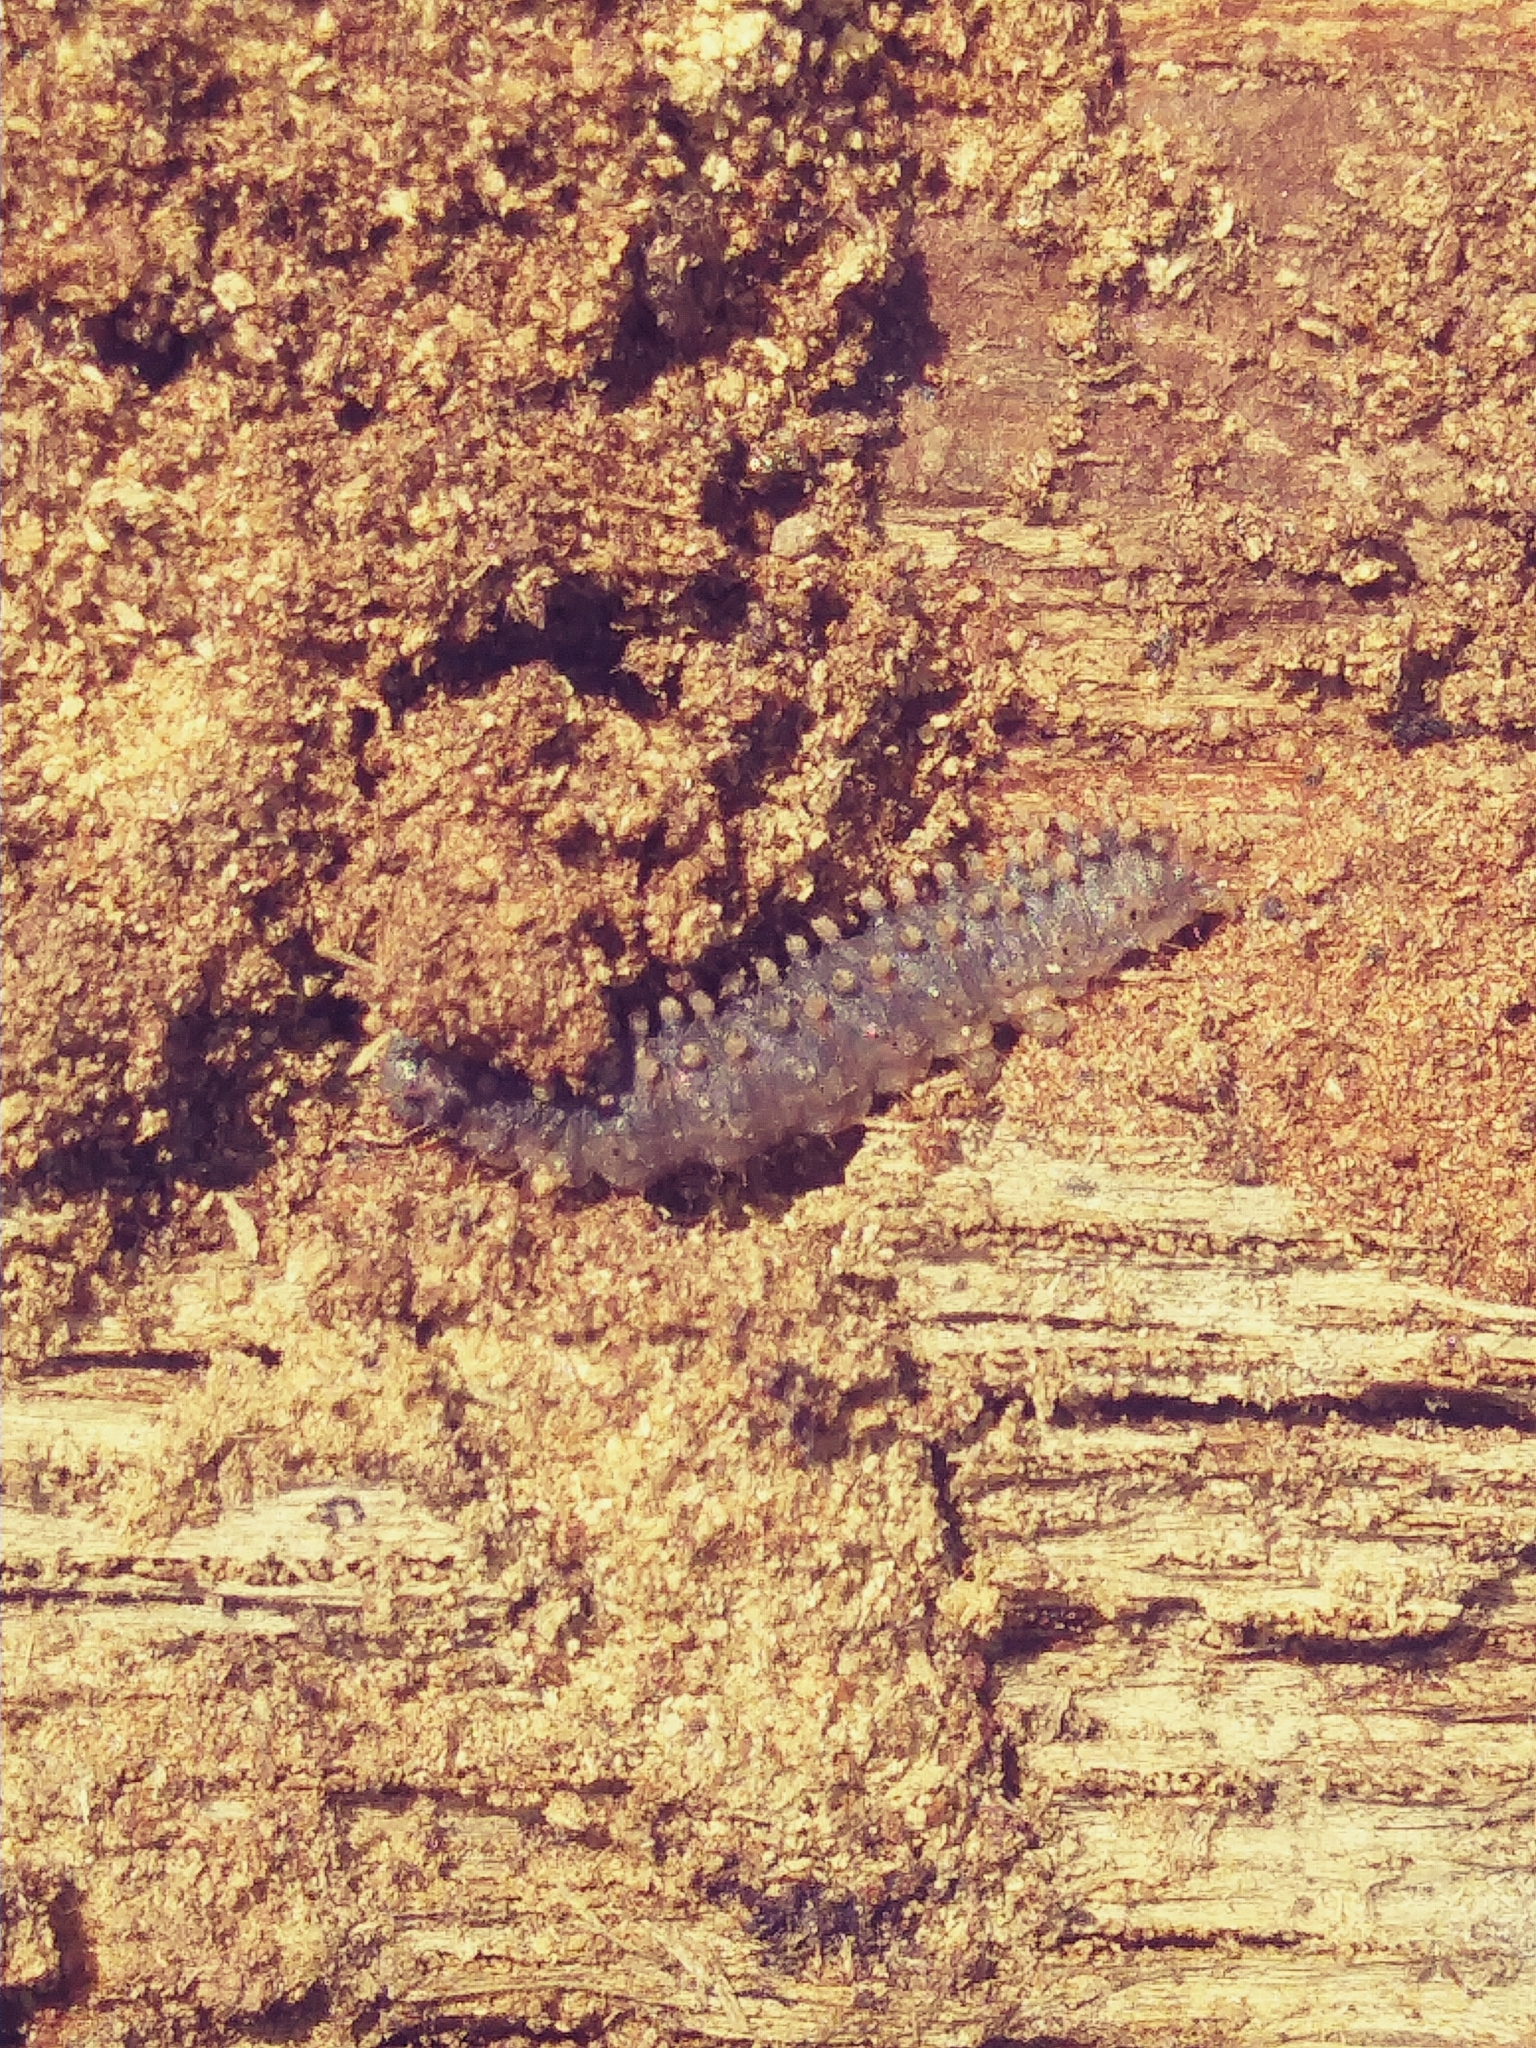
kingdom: Animalia
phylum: Arthropoda
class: Insecta
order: Lepidoptera
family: Erebidae
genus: Idia
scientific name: Idia lubricalis
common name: Twin-striped tabby
